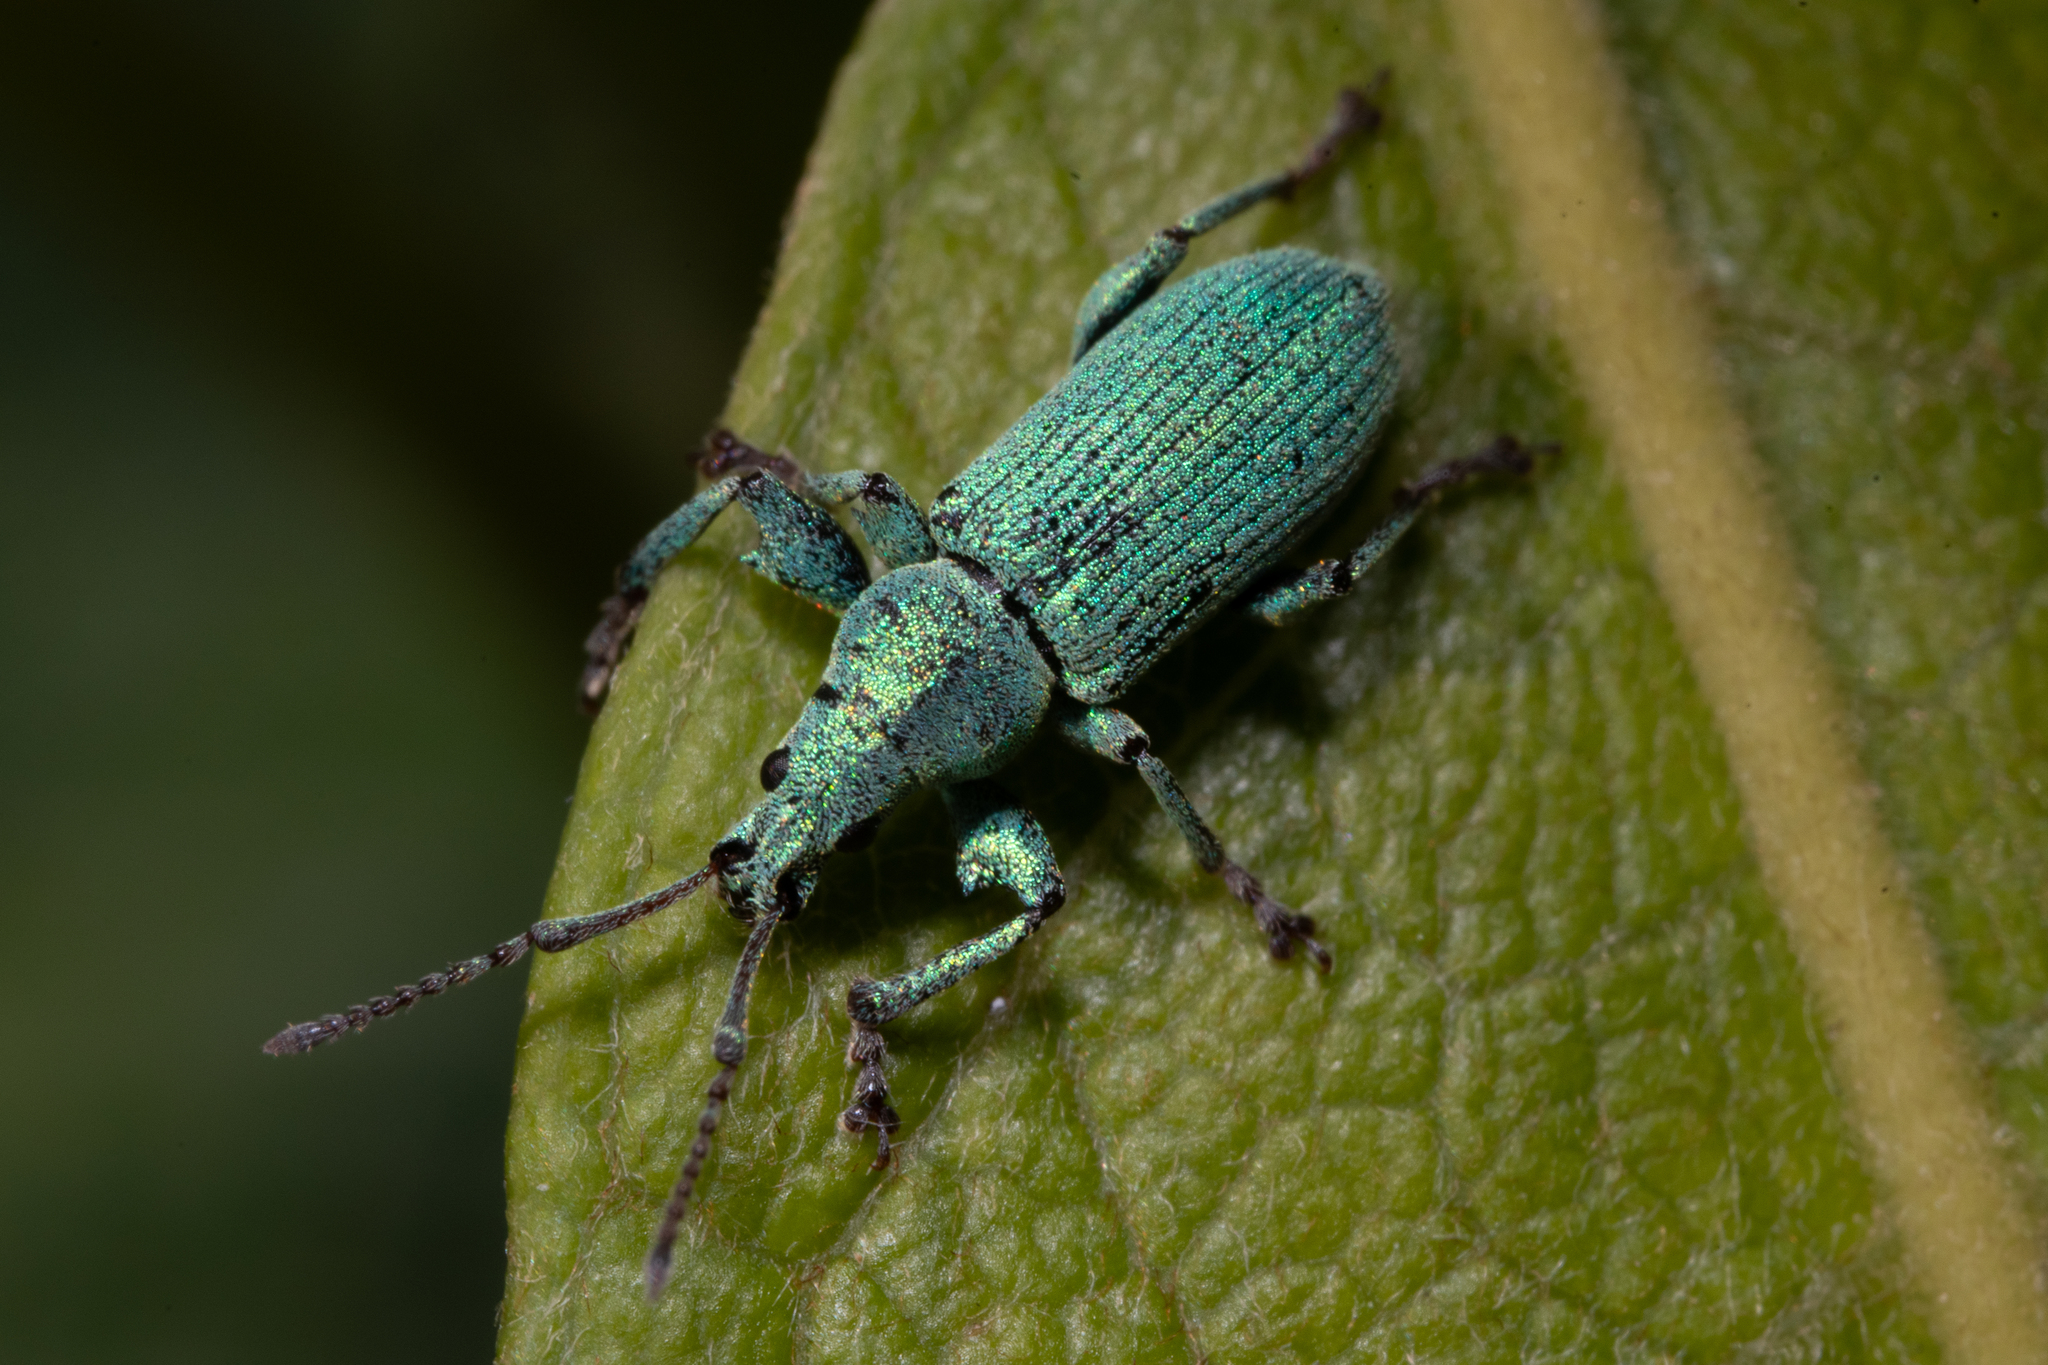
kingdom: Animalia
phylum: Arthropoda
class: Insecta
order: Coleoptera
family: Curculionidae
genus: Phyllobius
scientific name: Phyllobius maculicornis
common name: Green leaf weevil
